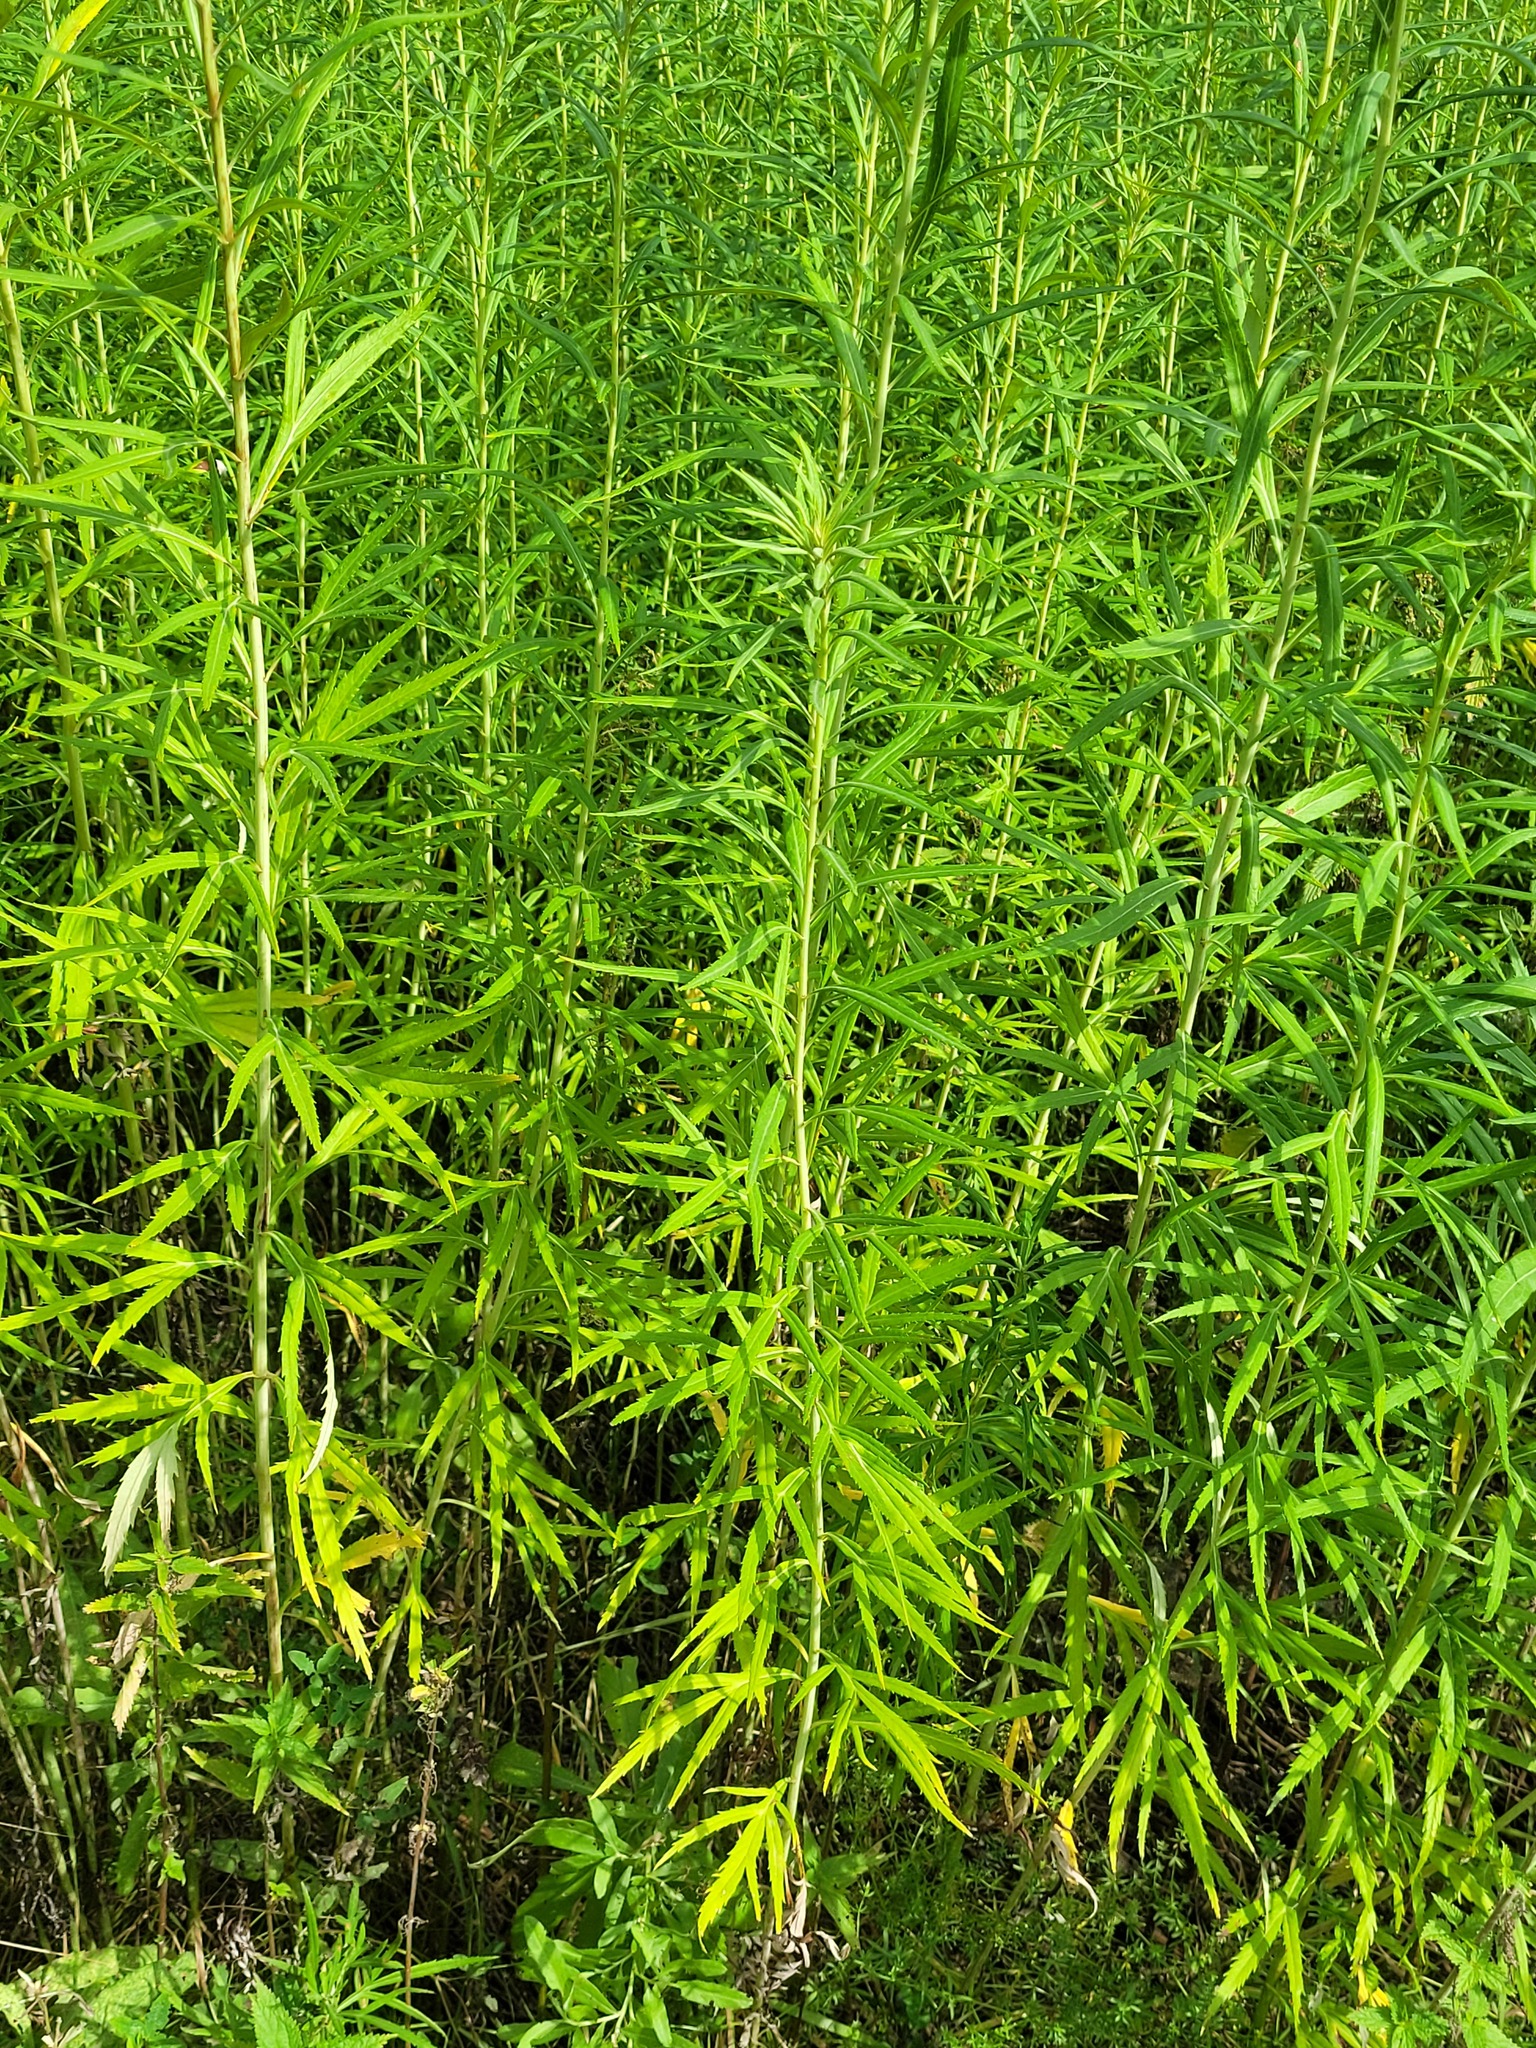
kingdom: Plantae
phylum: Tracheophyta
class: Magnoliopsida
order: Asterales
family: Asteraceae
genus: Artemisia
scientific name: Artemisia selengensis
